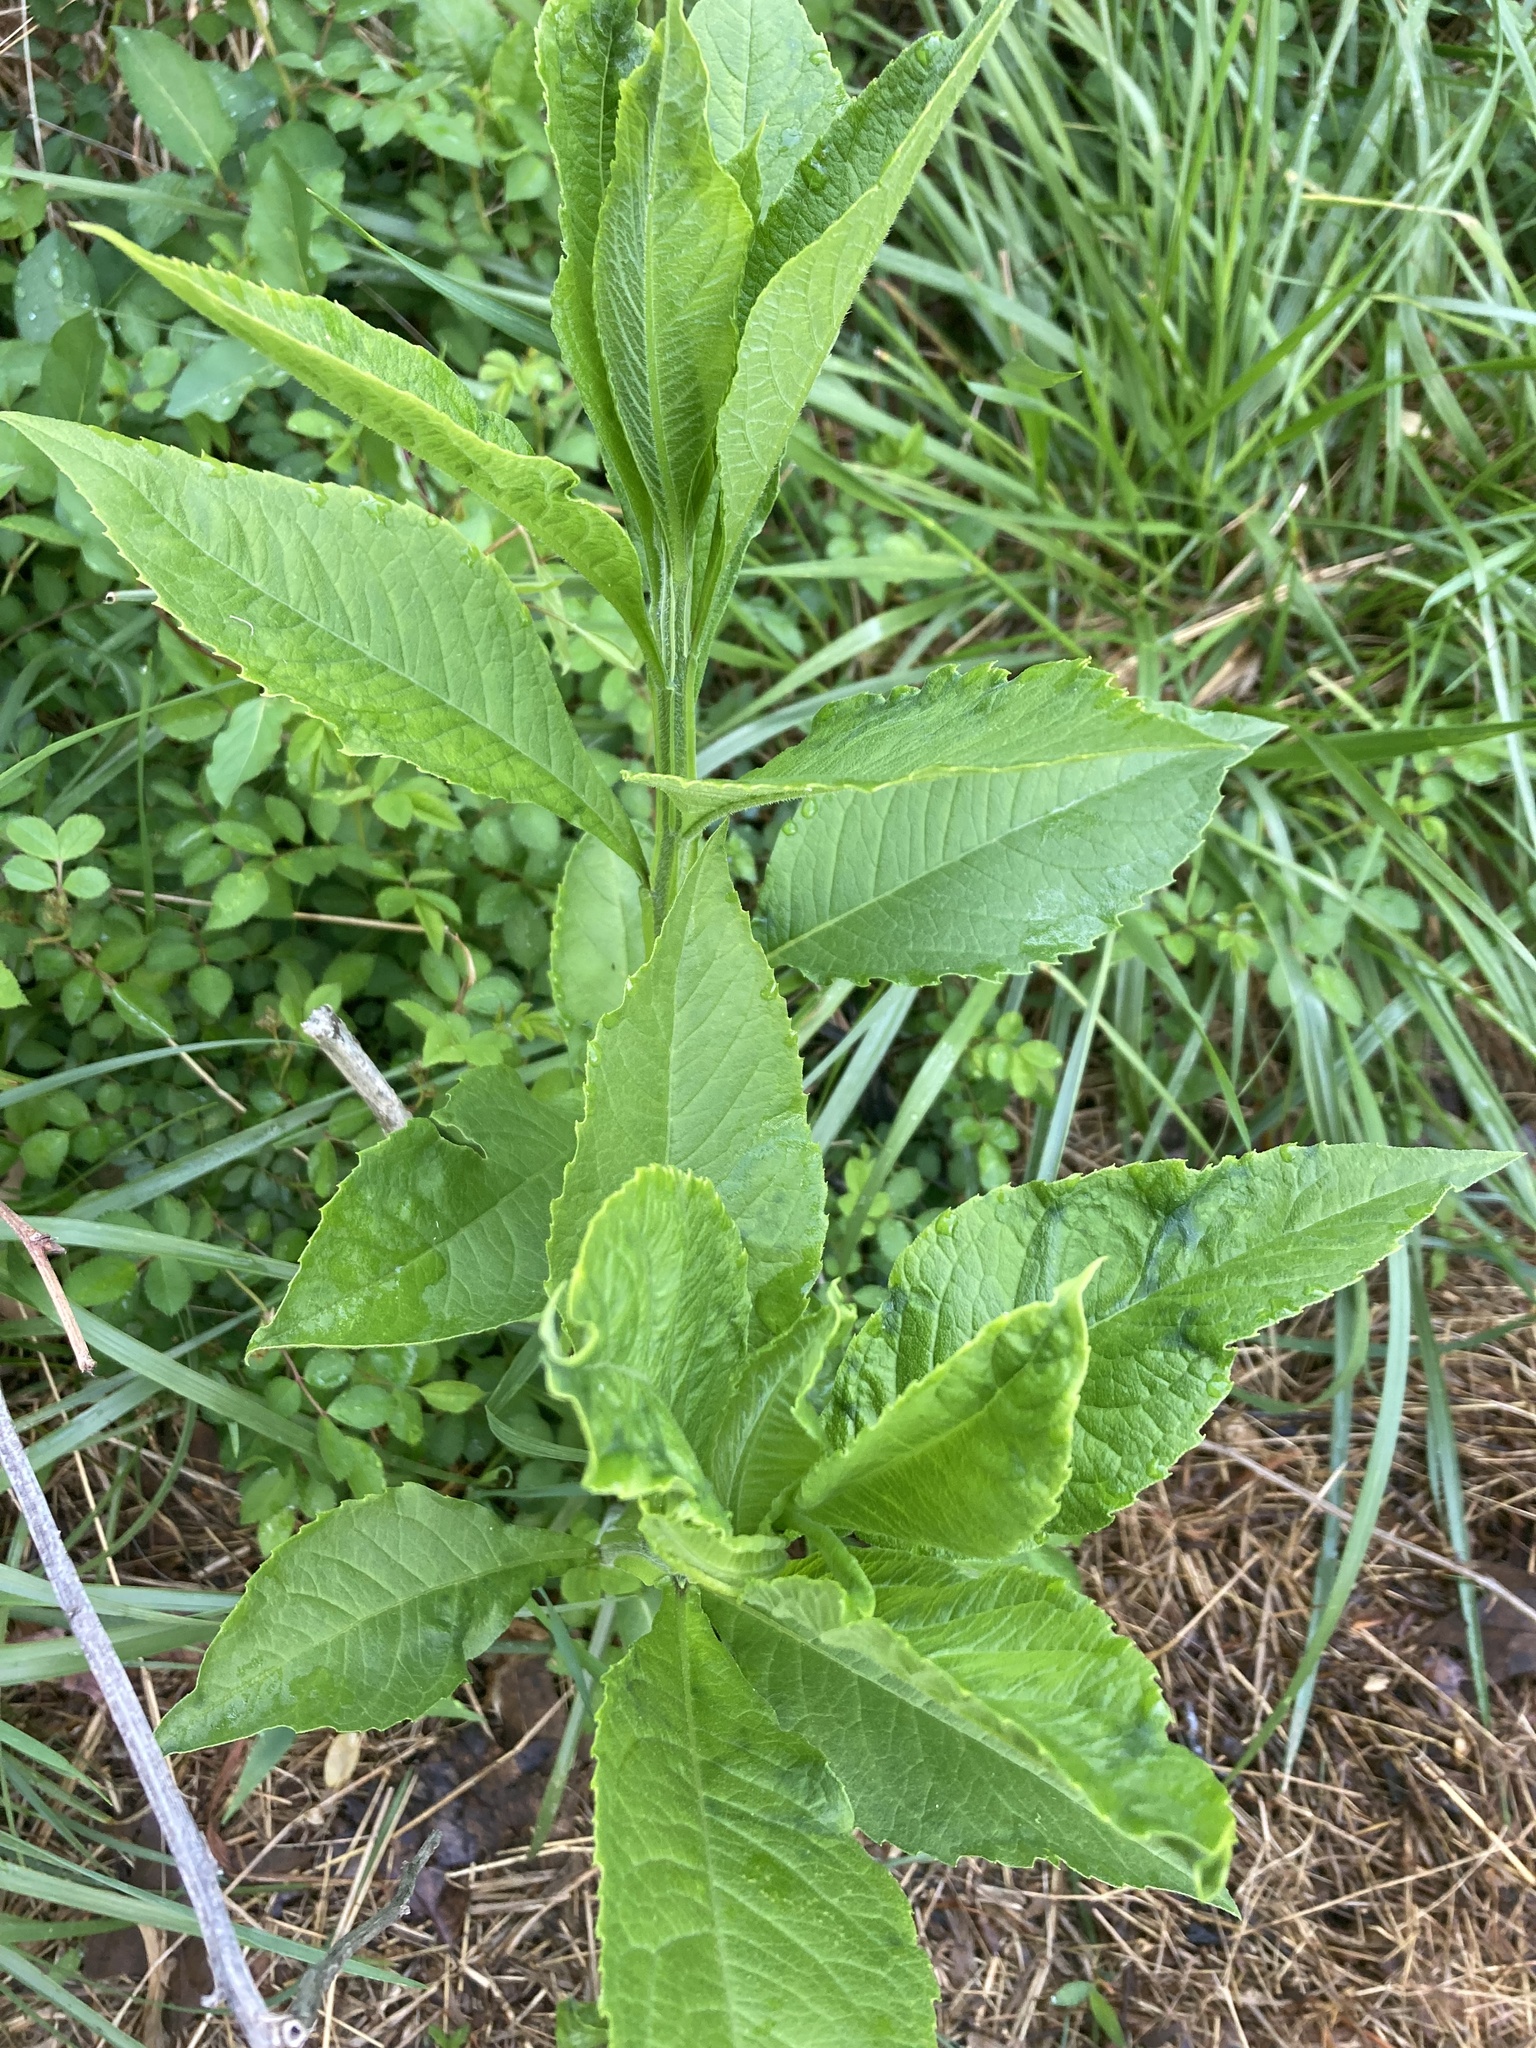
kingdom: Plantae
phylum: Tracheophyta
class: Magnoliopsida
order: Asterales
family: Asteraceae
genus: Verbesina
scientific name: Verbesina alternifolia
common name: Wingstem
